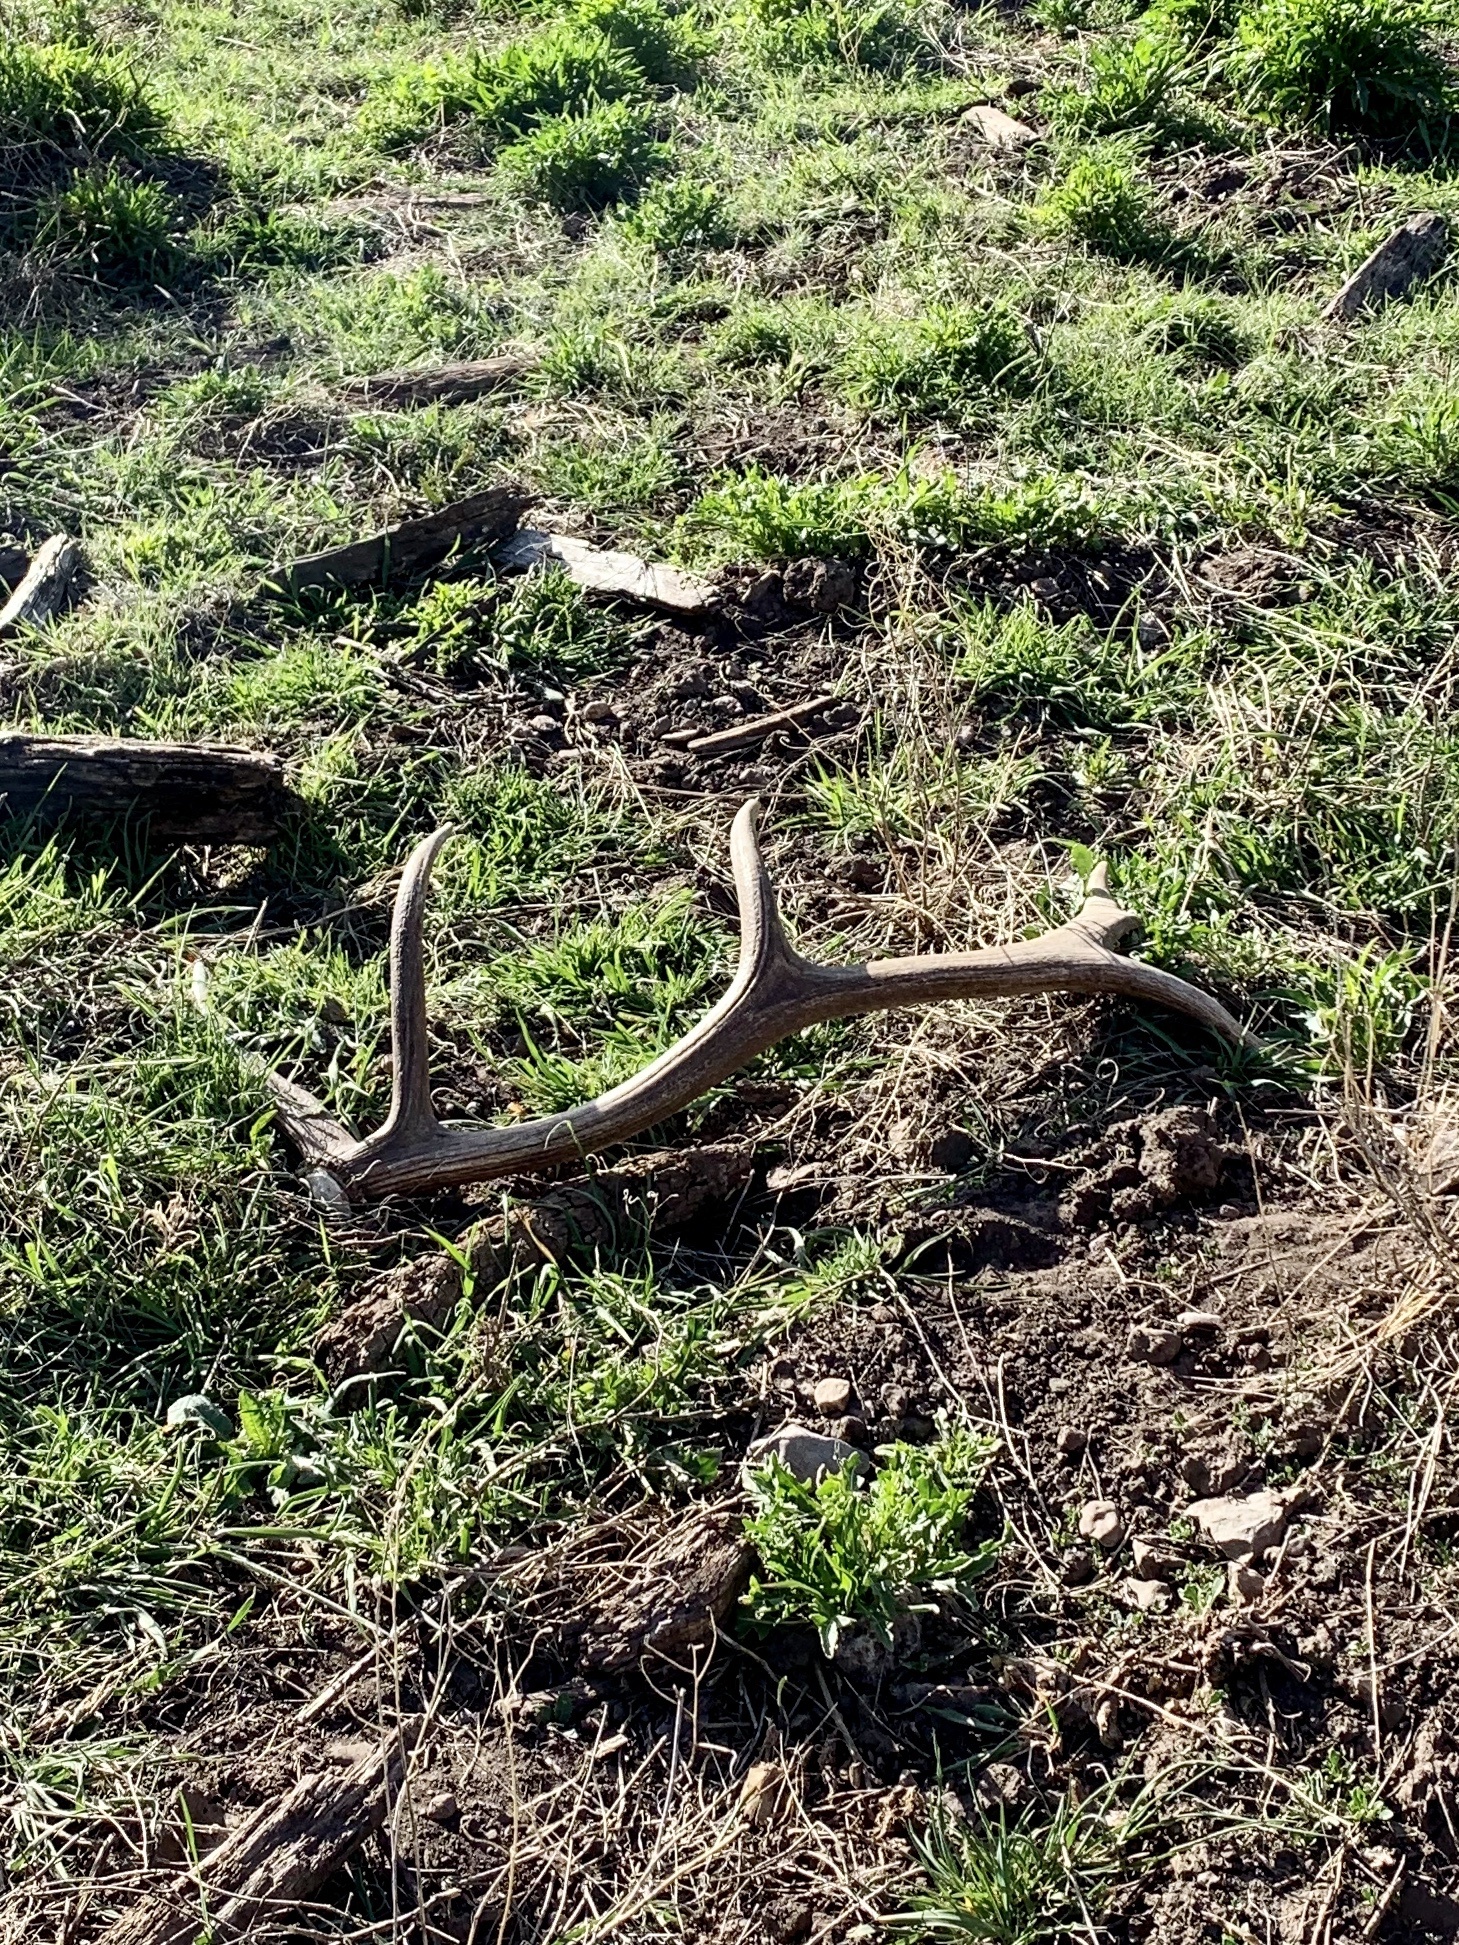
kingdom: Animalia
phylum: Chordata
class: Mammalia
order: Artiodactyla
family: Cervidae
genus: Cervus
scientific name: Cervus elaphus
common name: Red deer
